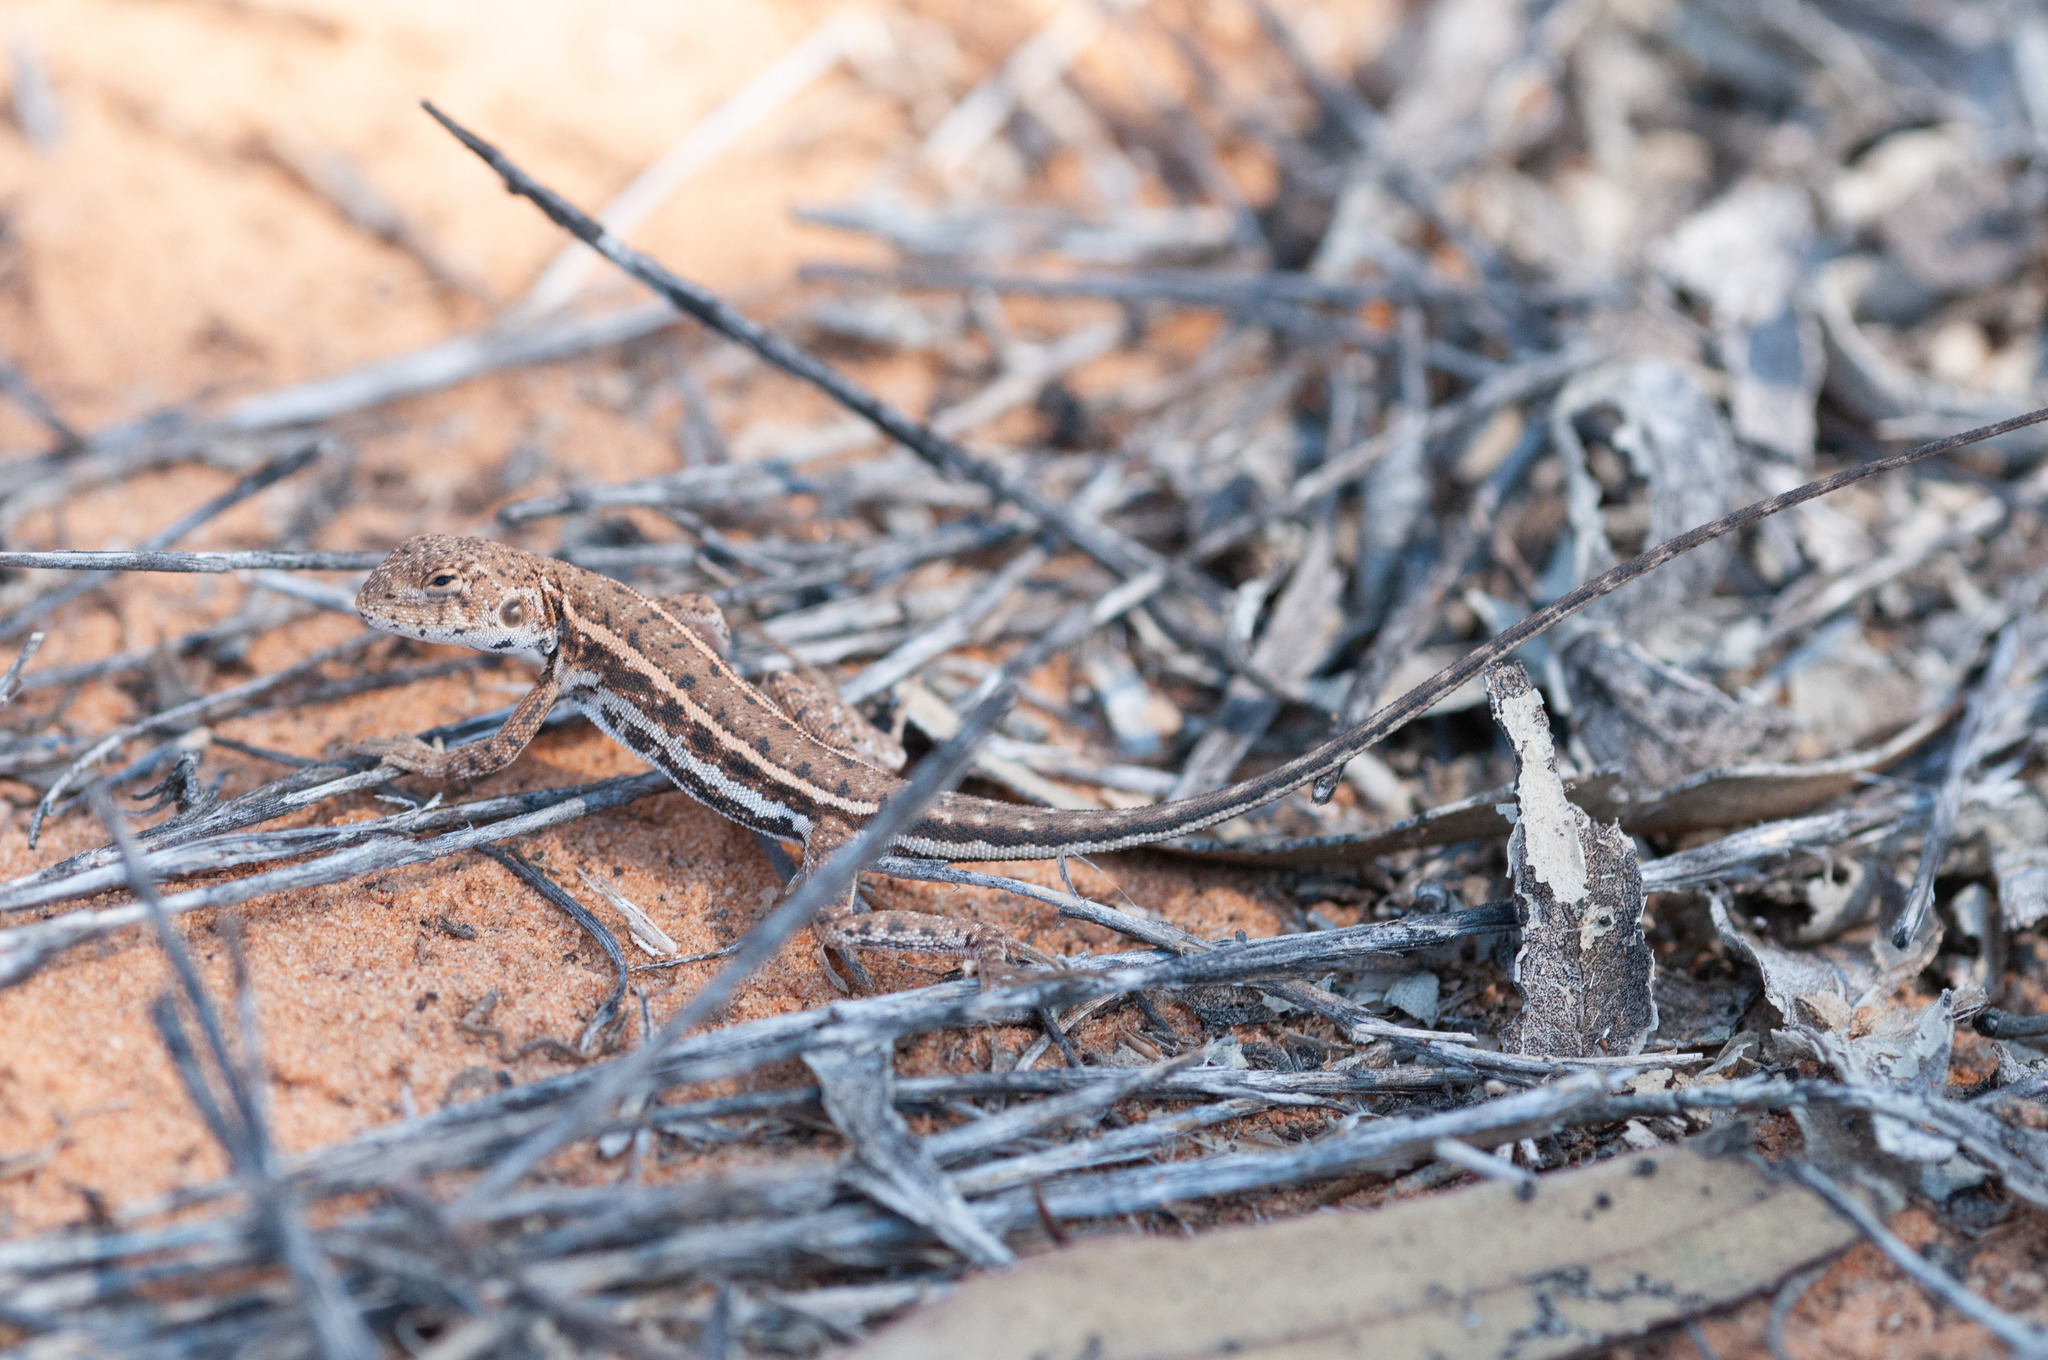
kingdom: Animalia
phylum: Chordata
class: Squamata
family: Agamidae
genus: Ctenophorus
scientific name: Ctenophorus
